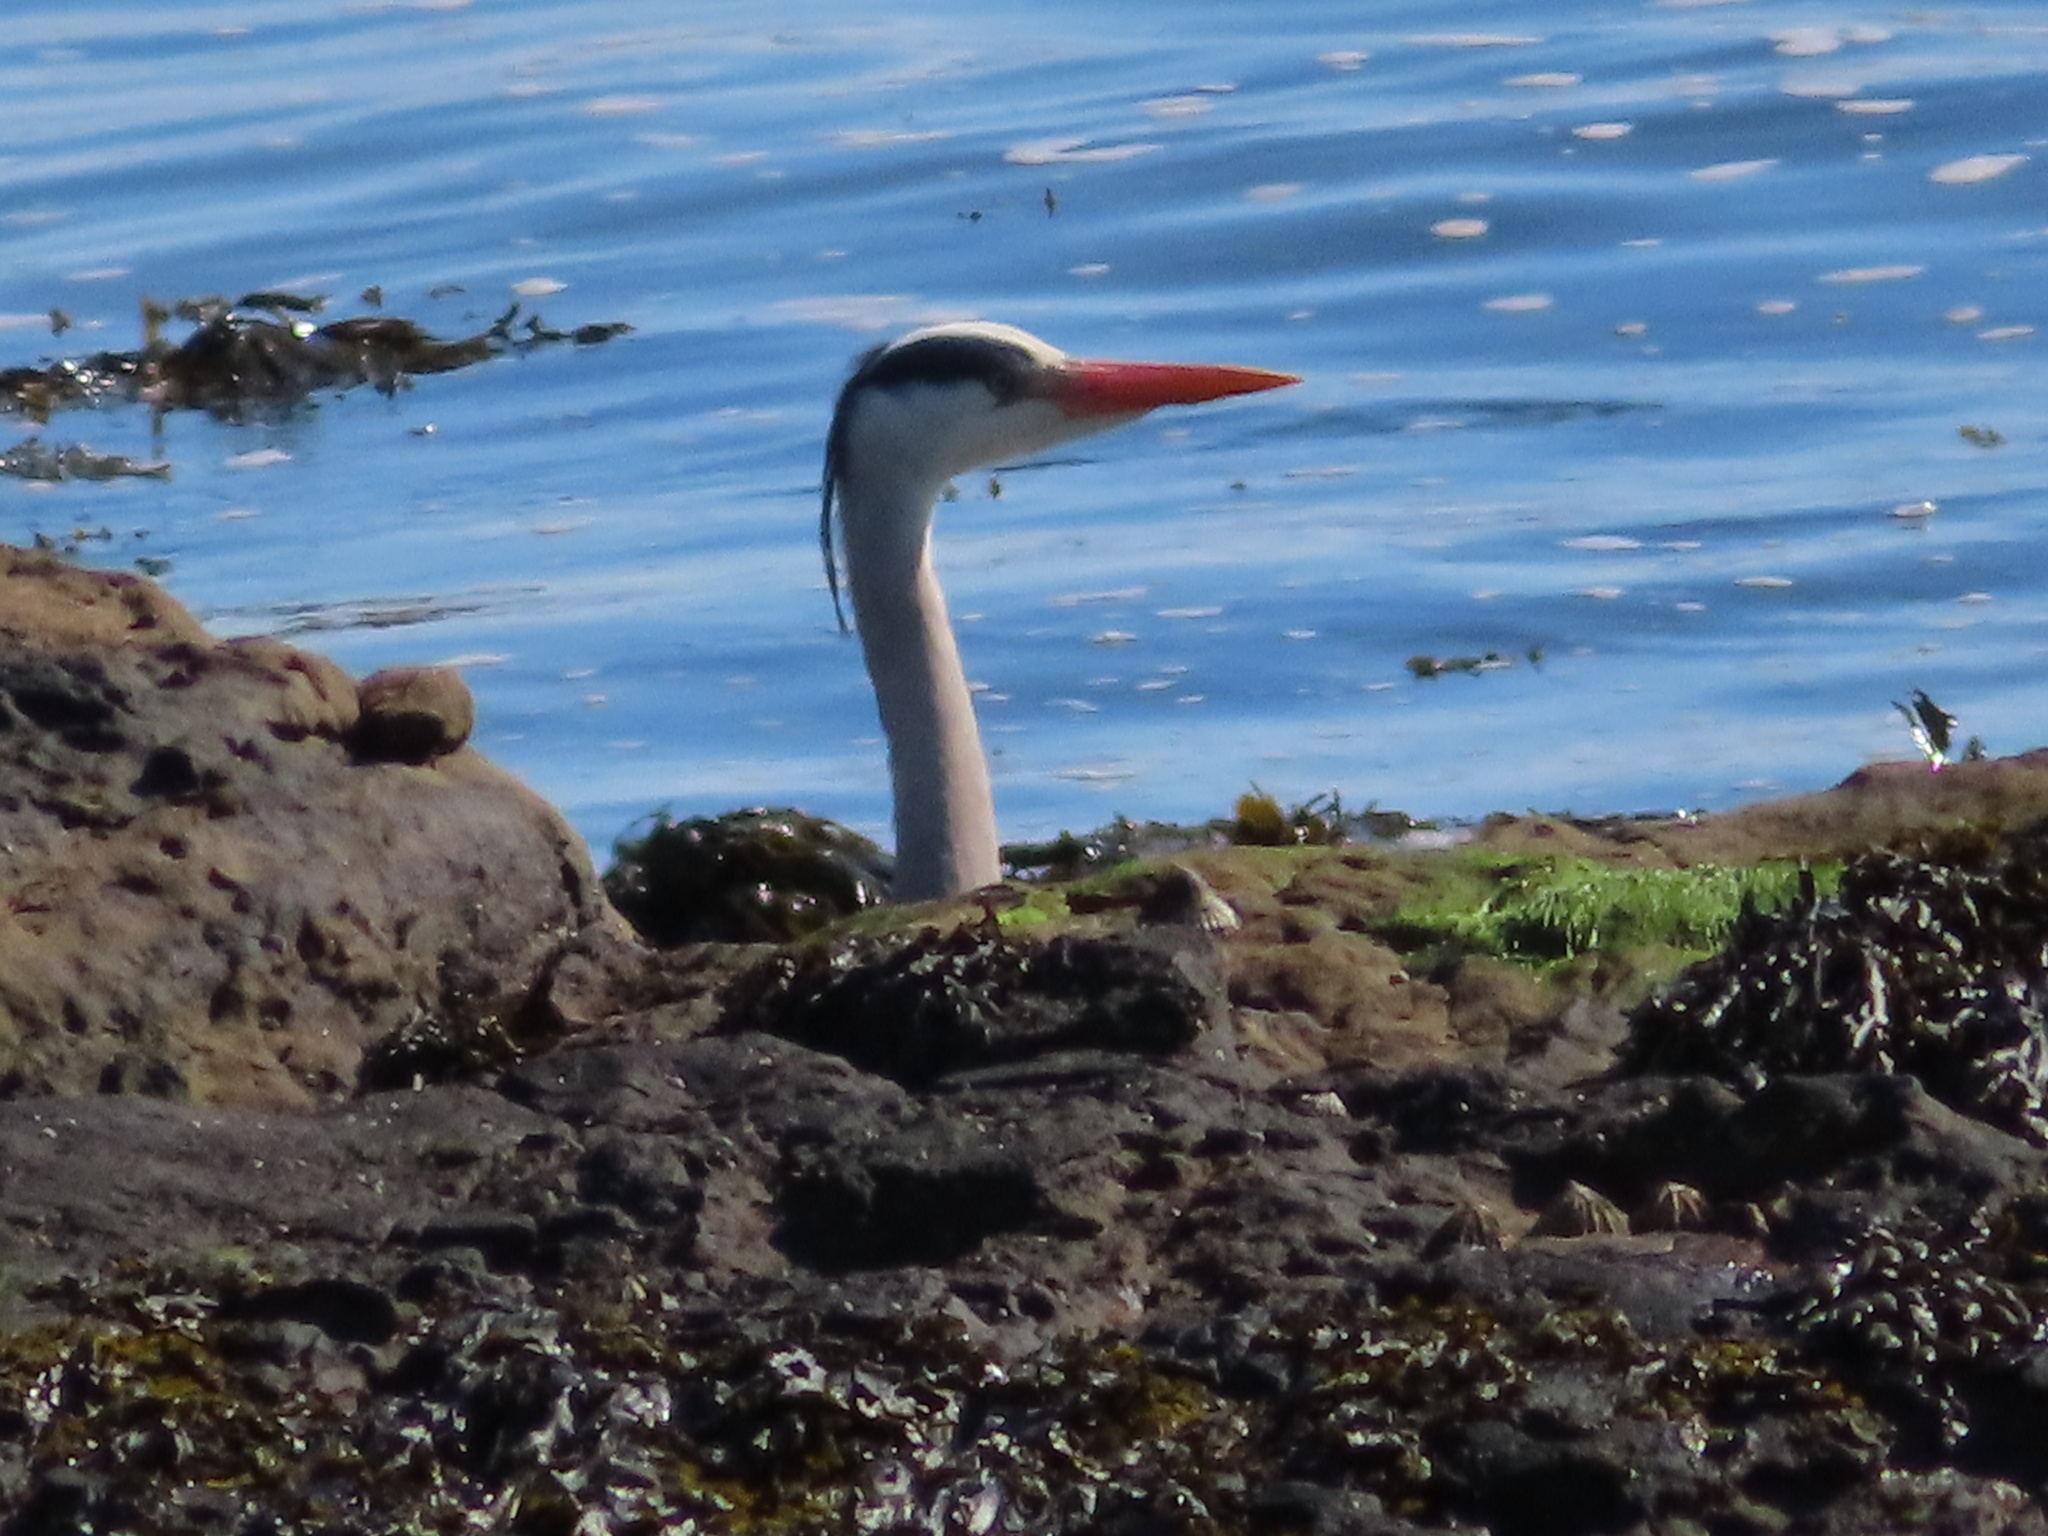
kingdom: Animalia
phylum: Chordata
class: Aves
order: Pelecaniformes
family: Ardeidae
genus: Ardea
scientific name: Ardea cinerea
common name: Grey heron
